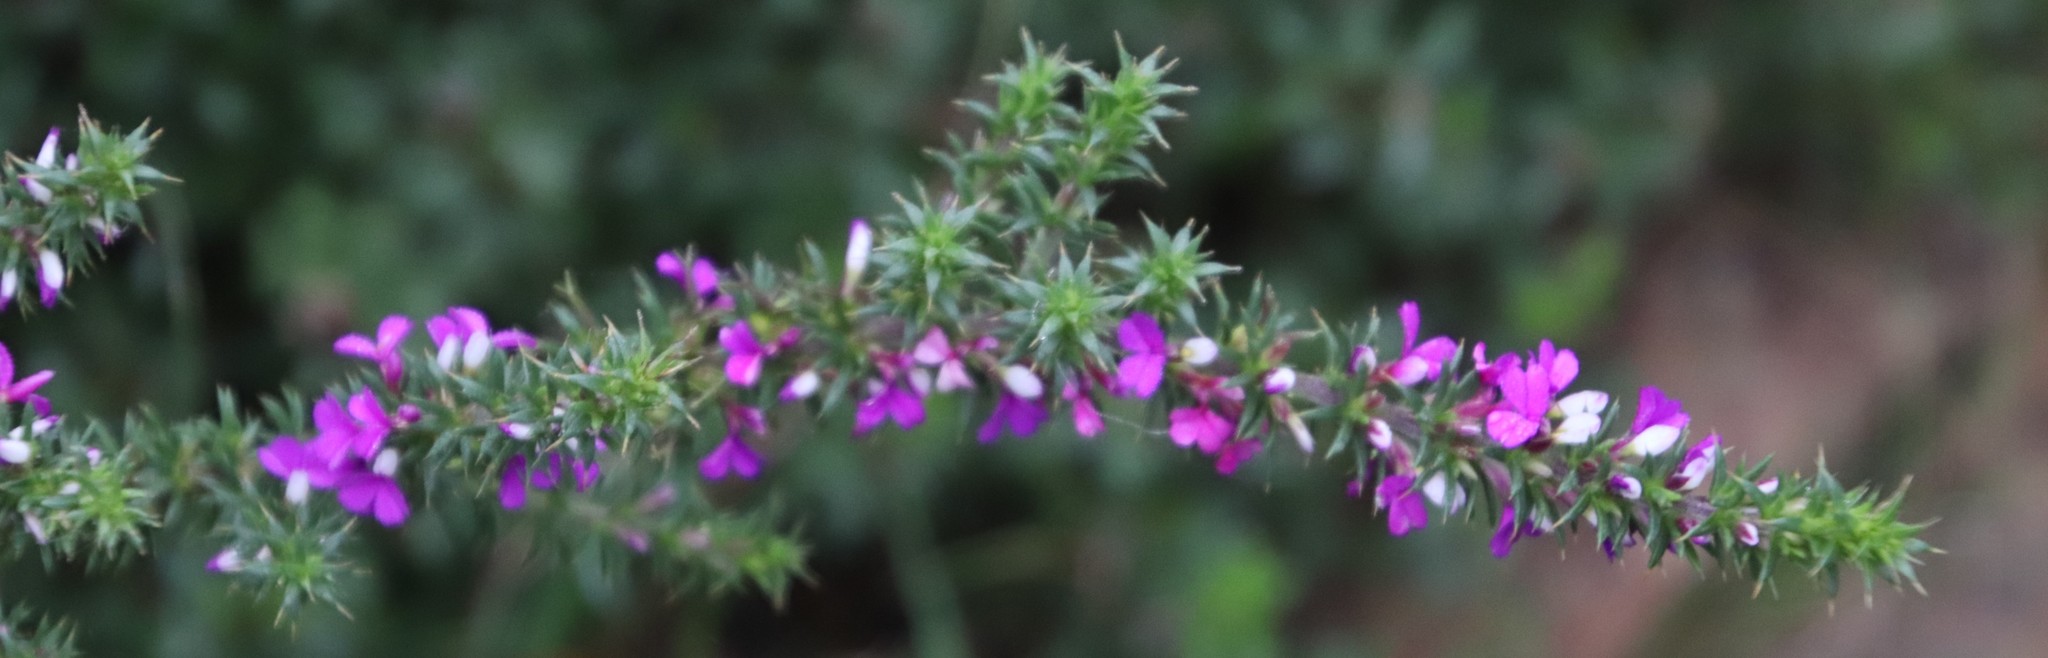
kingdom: Plantae
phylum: Tracheophyta
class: Magnoliopsida
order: Fabales
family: Polygalaceae
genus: Muraltia
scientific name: Muraltia heisteria
